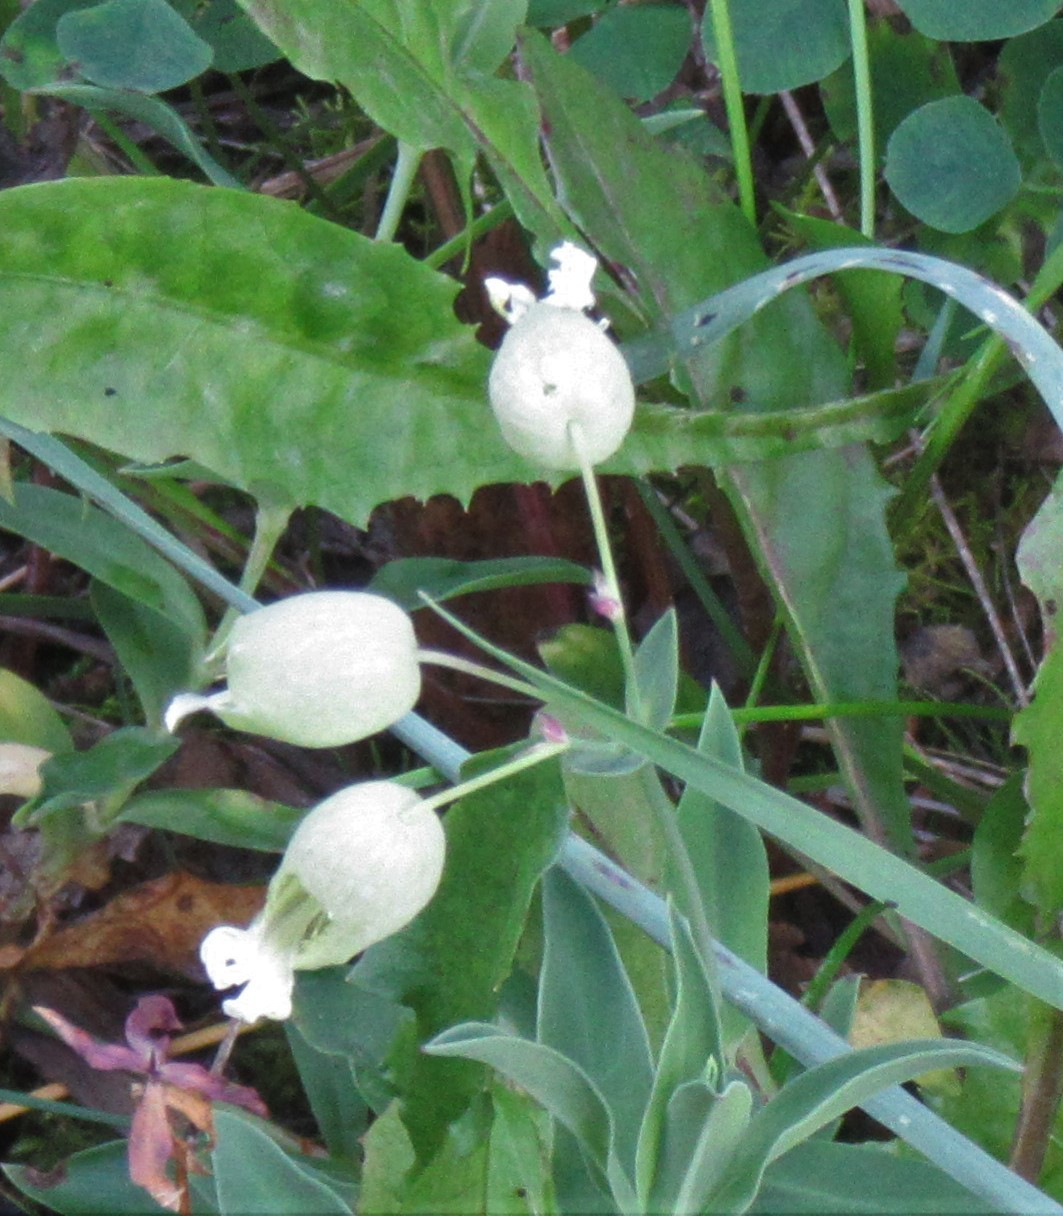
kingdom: Plantae
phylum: Tracheophyta
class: Magnoliopsida
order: Caryophyllales
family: Caryophyllaceae
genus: Silene
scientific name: Silene vulgaris
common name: Bladder campion
